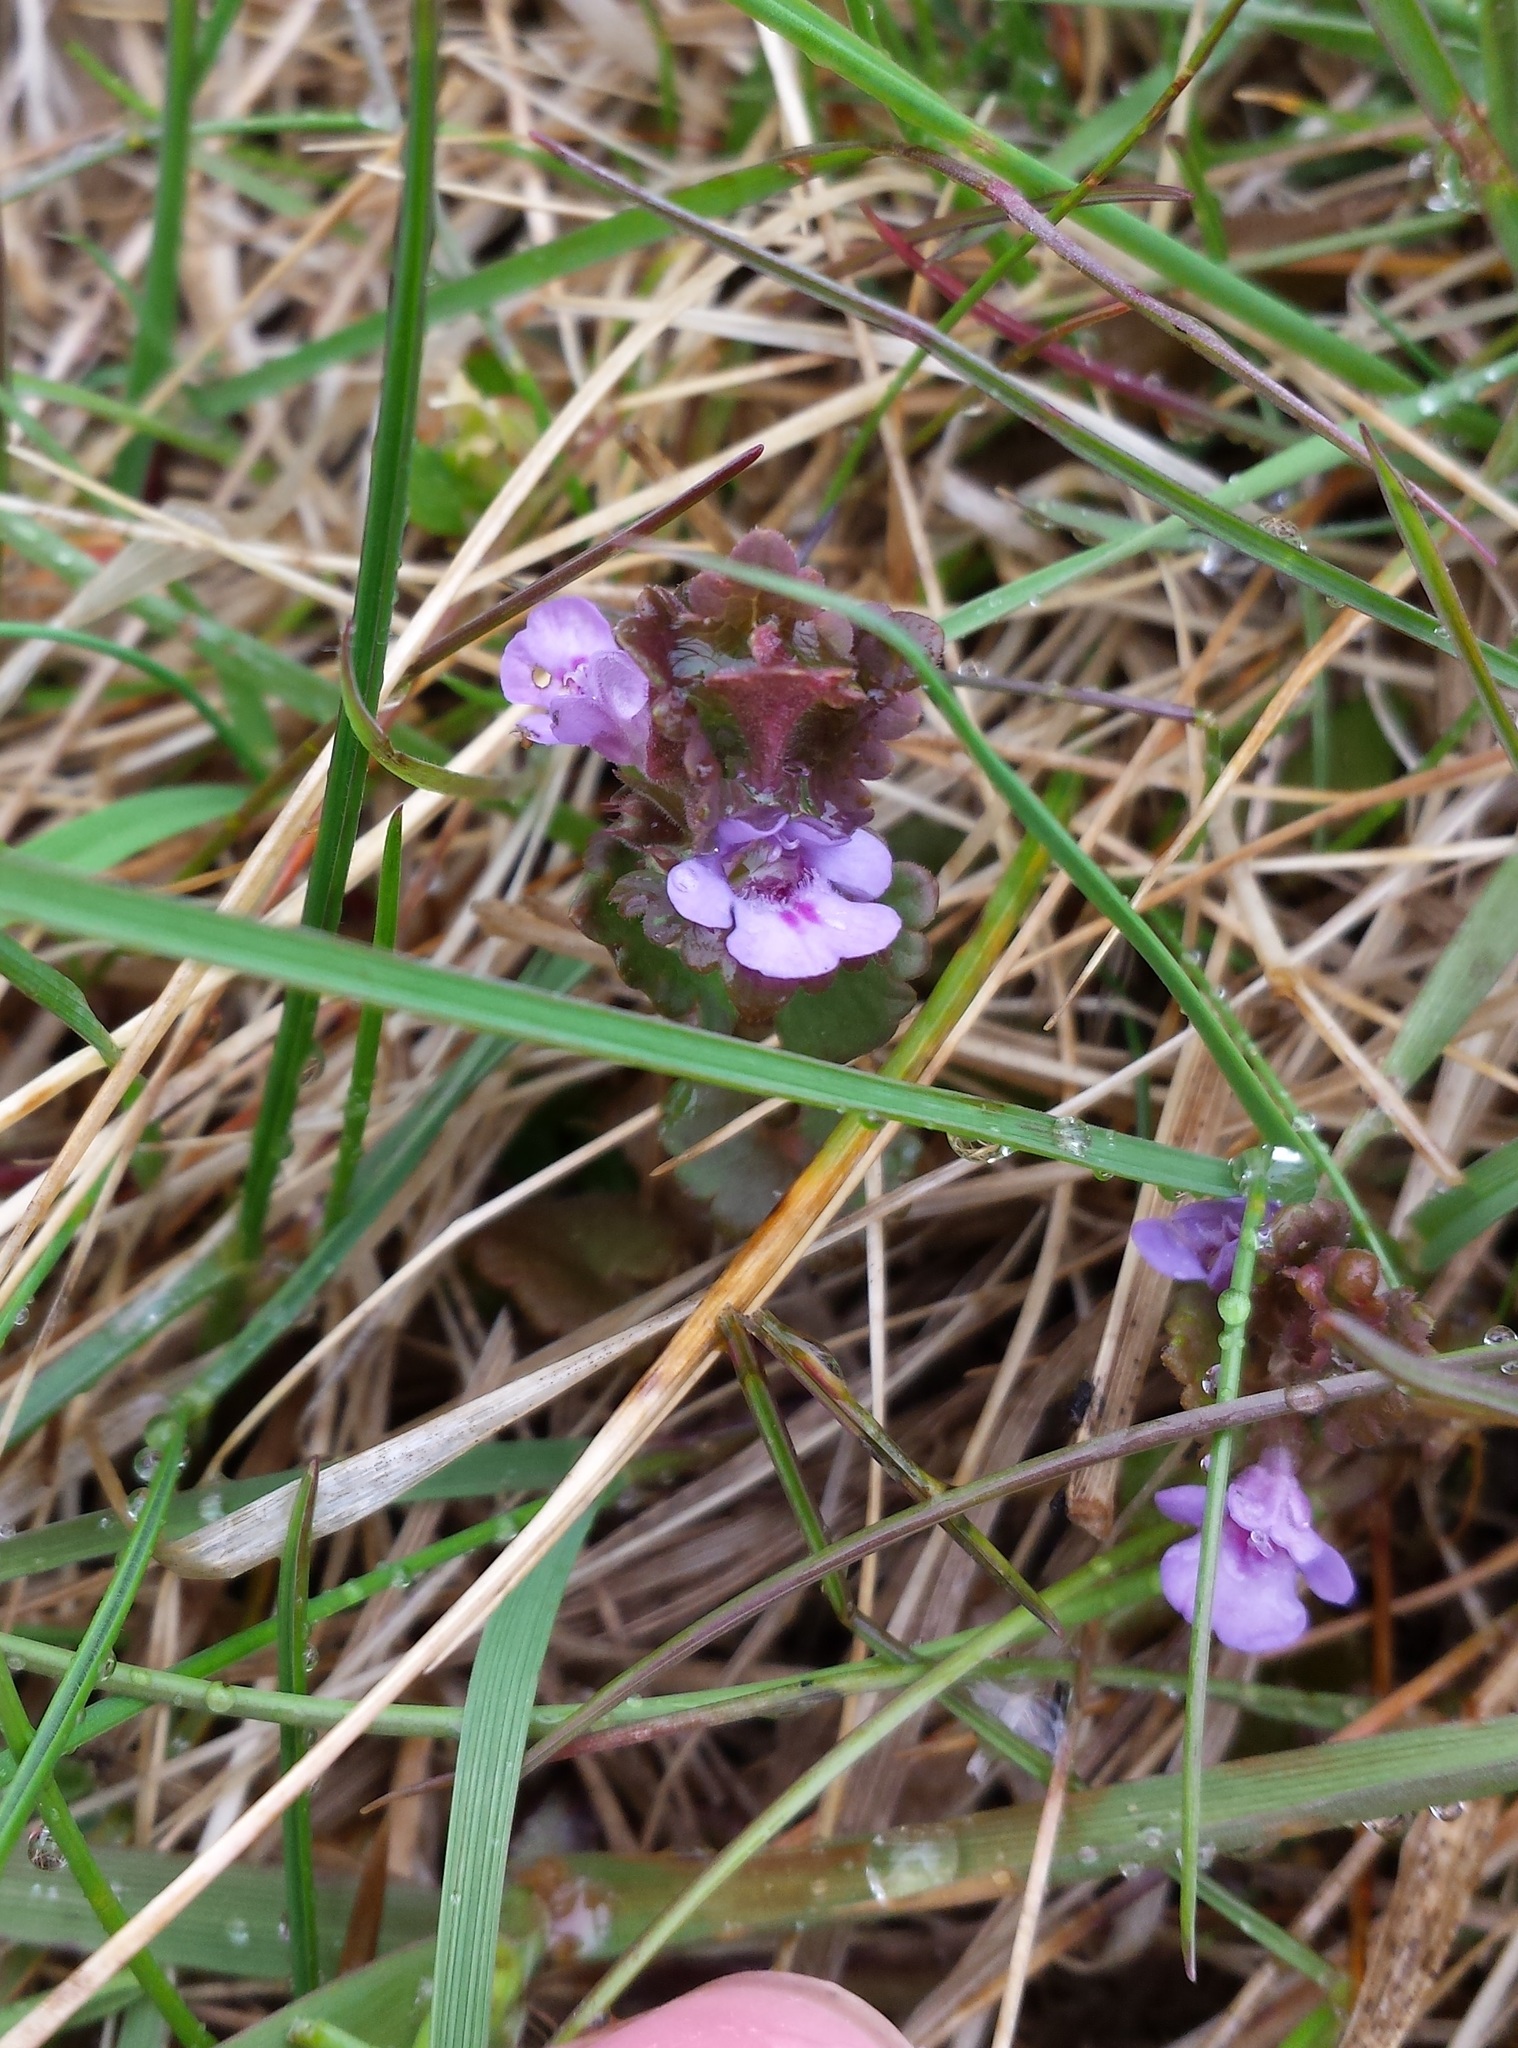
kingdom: Plantae
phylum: Tracheophyta
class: Magnoliopsida
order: Lamiales
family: Lamiaceae
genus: Glechoma
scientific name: Glechoma hederacea
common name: Ground ivy
